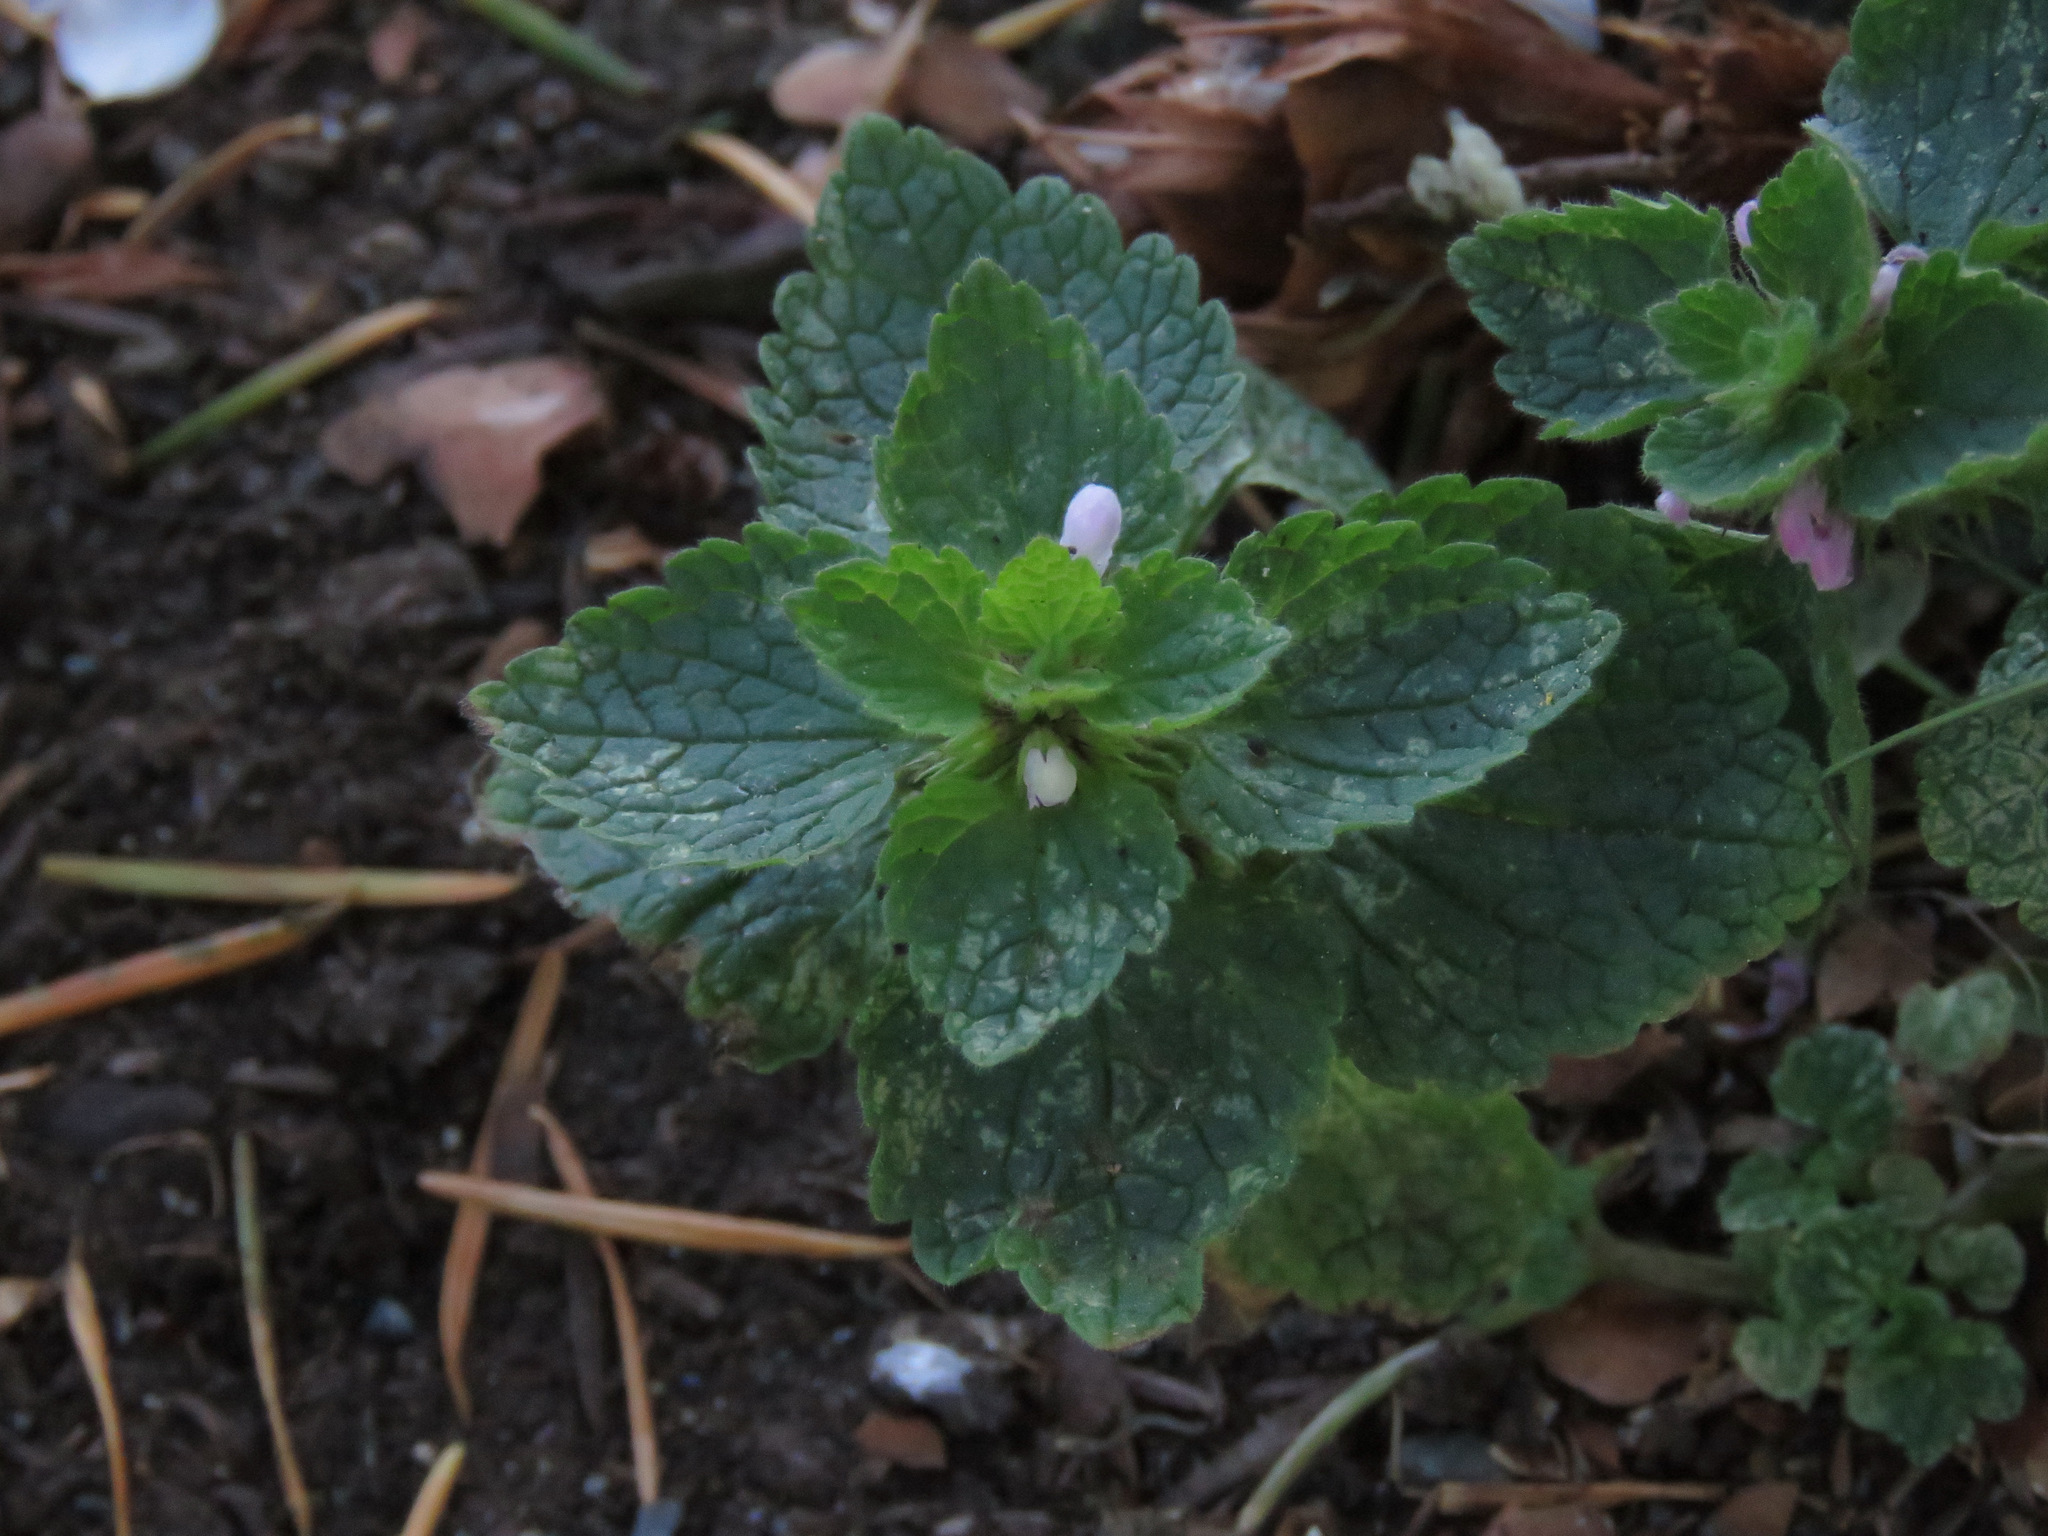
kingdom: Plantae
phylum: Tracheophyta
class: Magnoliopsida
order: Lamiales
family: Lamiaceae
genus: Lamium
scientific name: Lamium purpureum
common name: Red dead-nettle
